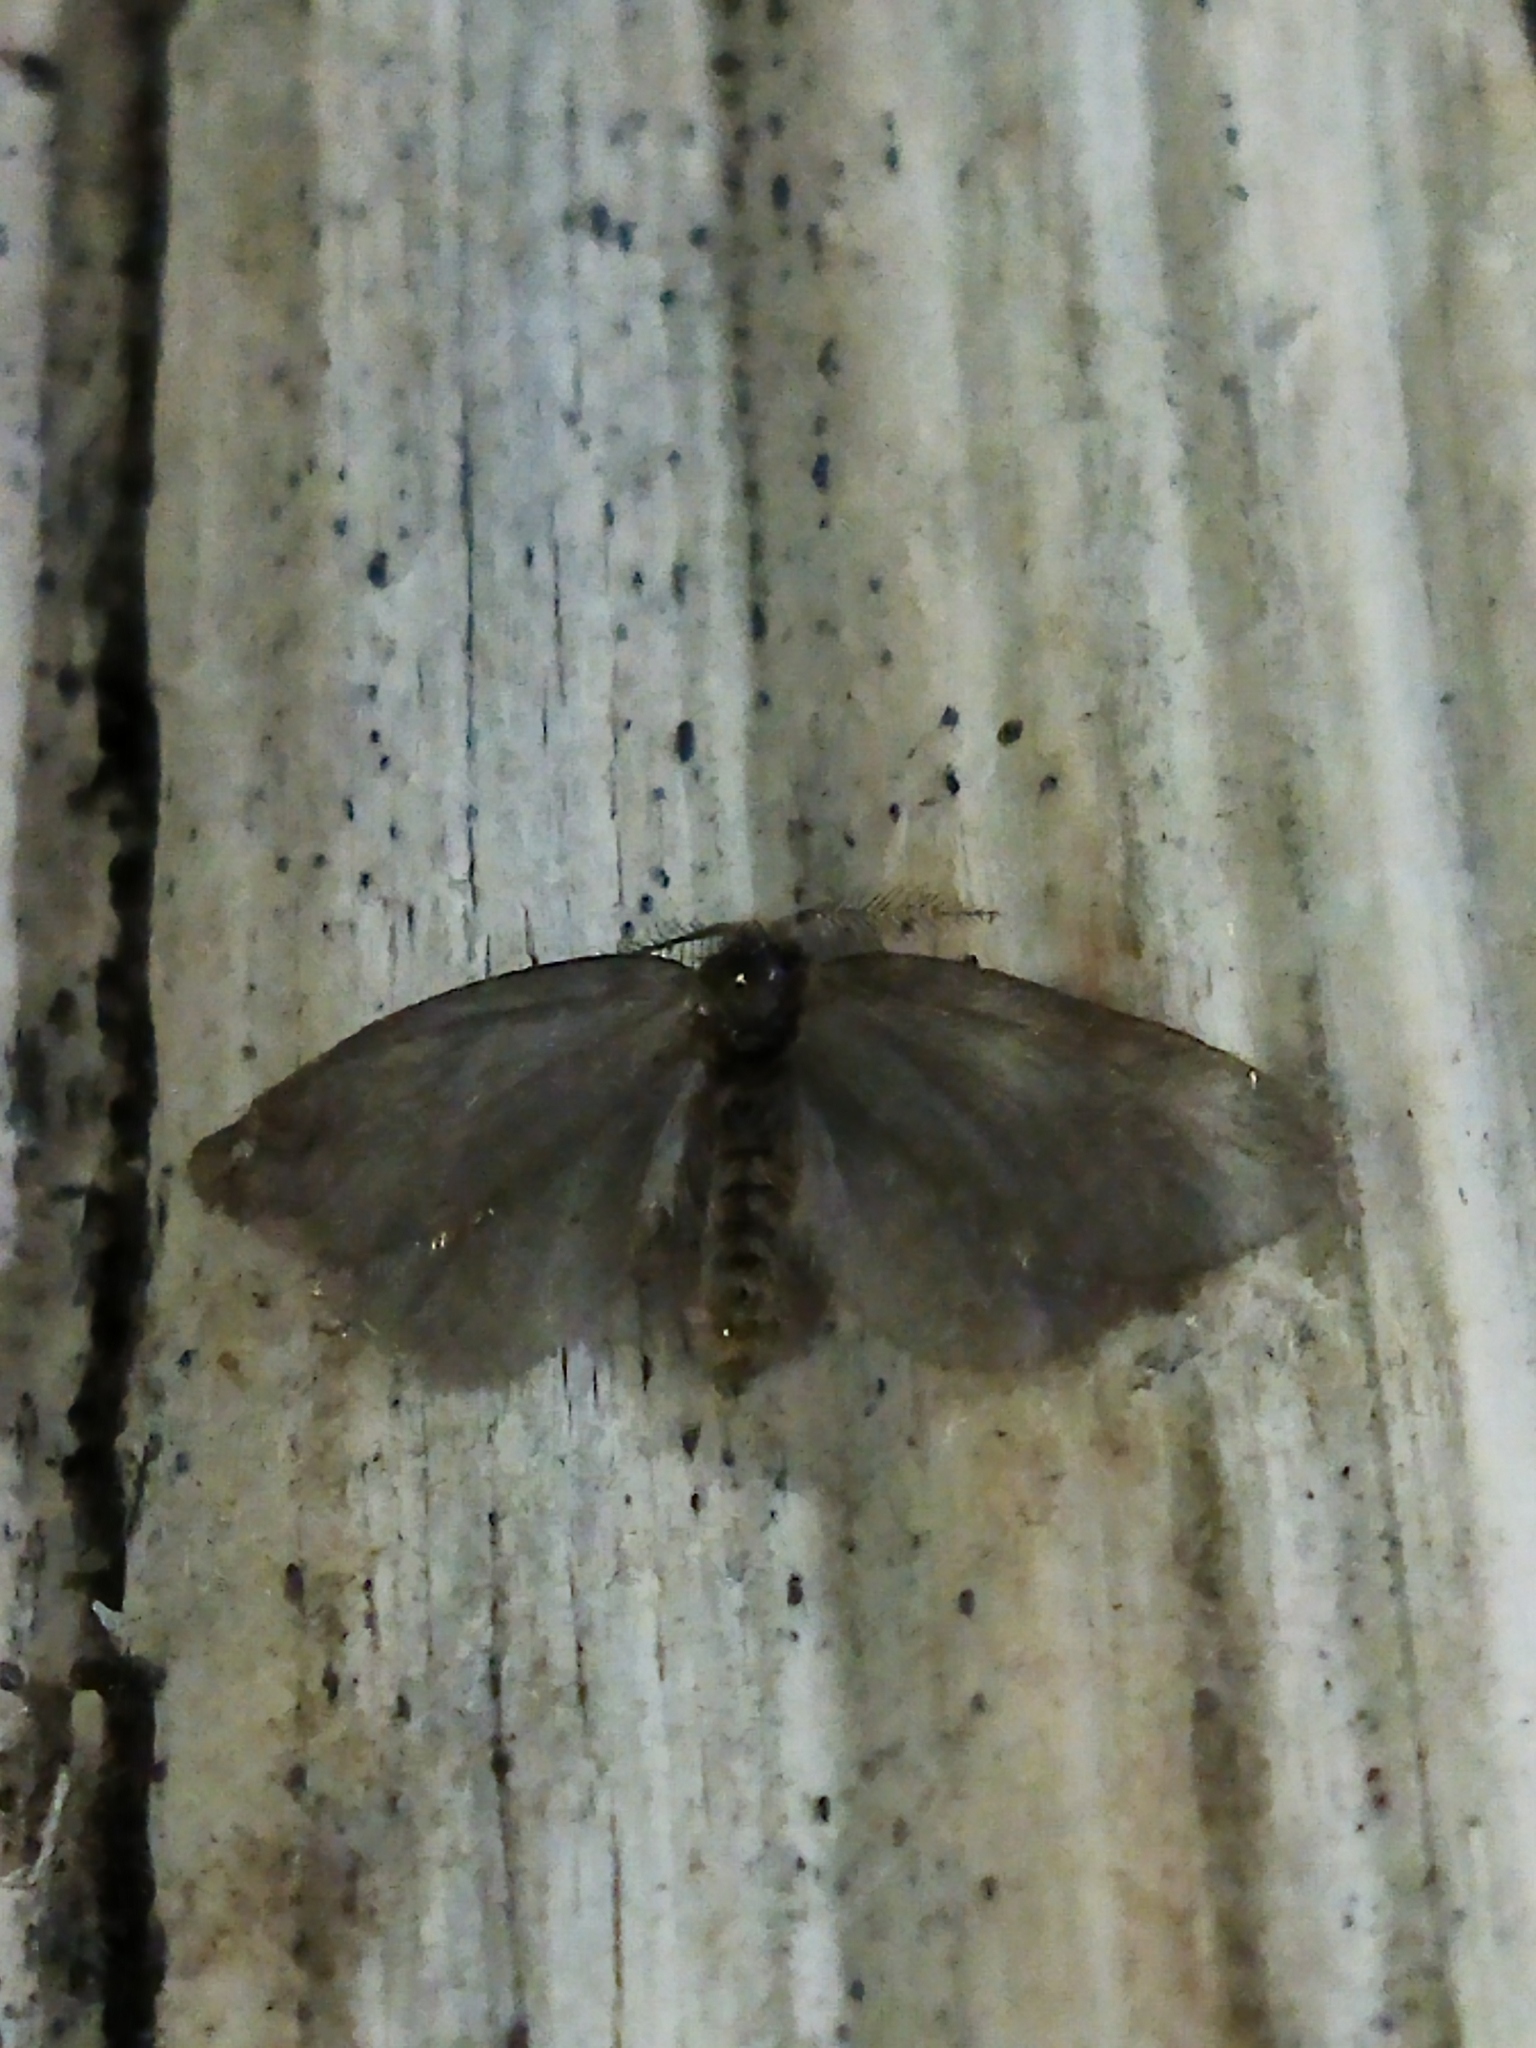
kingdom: Animalia
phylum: Arthropoda
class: Insecta
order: Lepidoptera
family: Psychidae
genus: Rebelia
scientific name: Rebelia perlucidella
